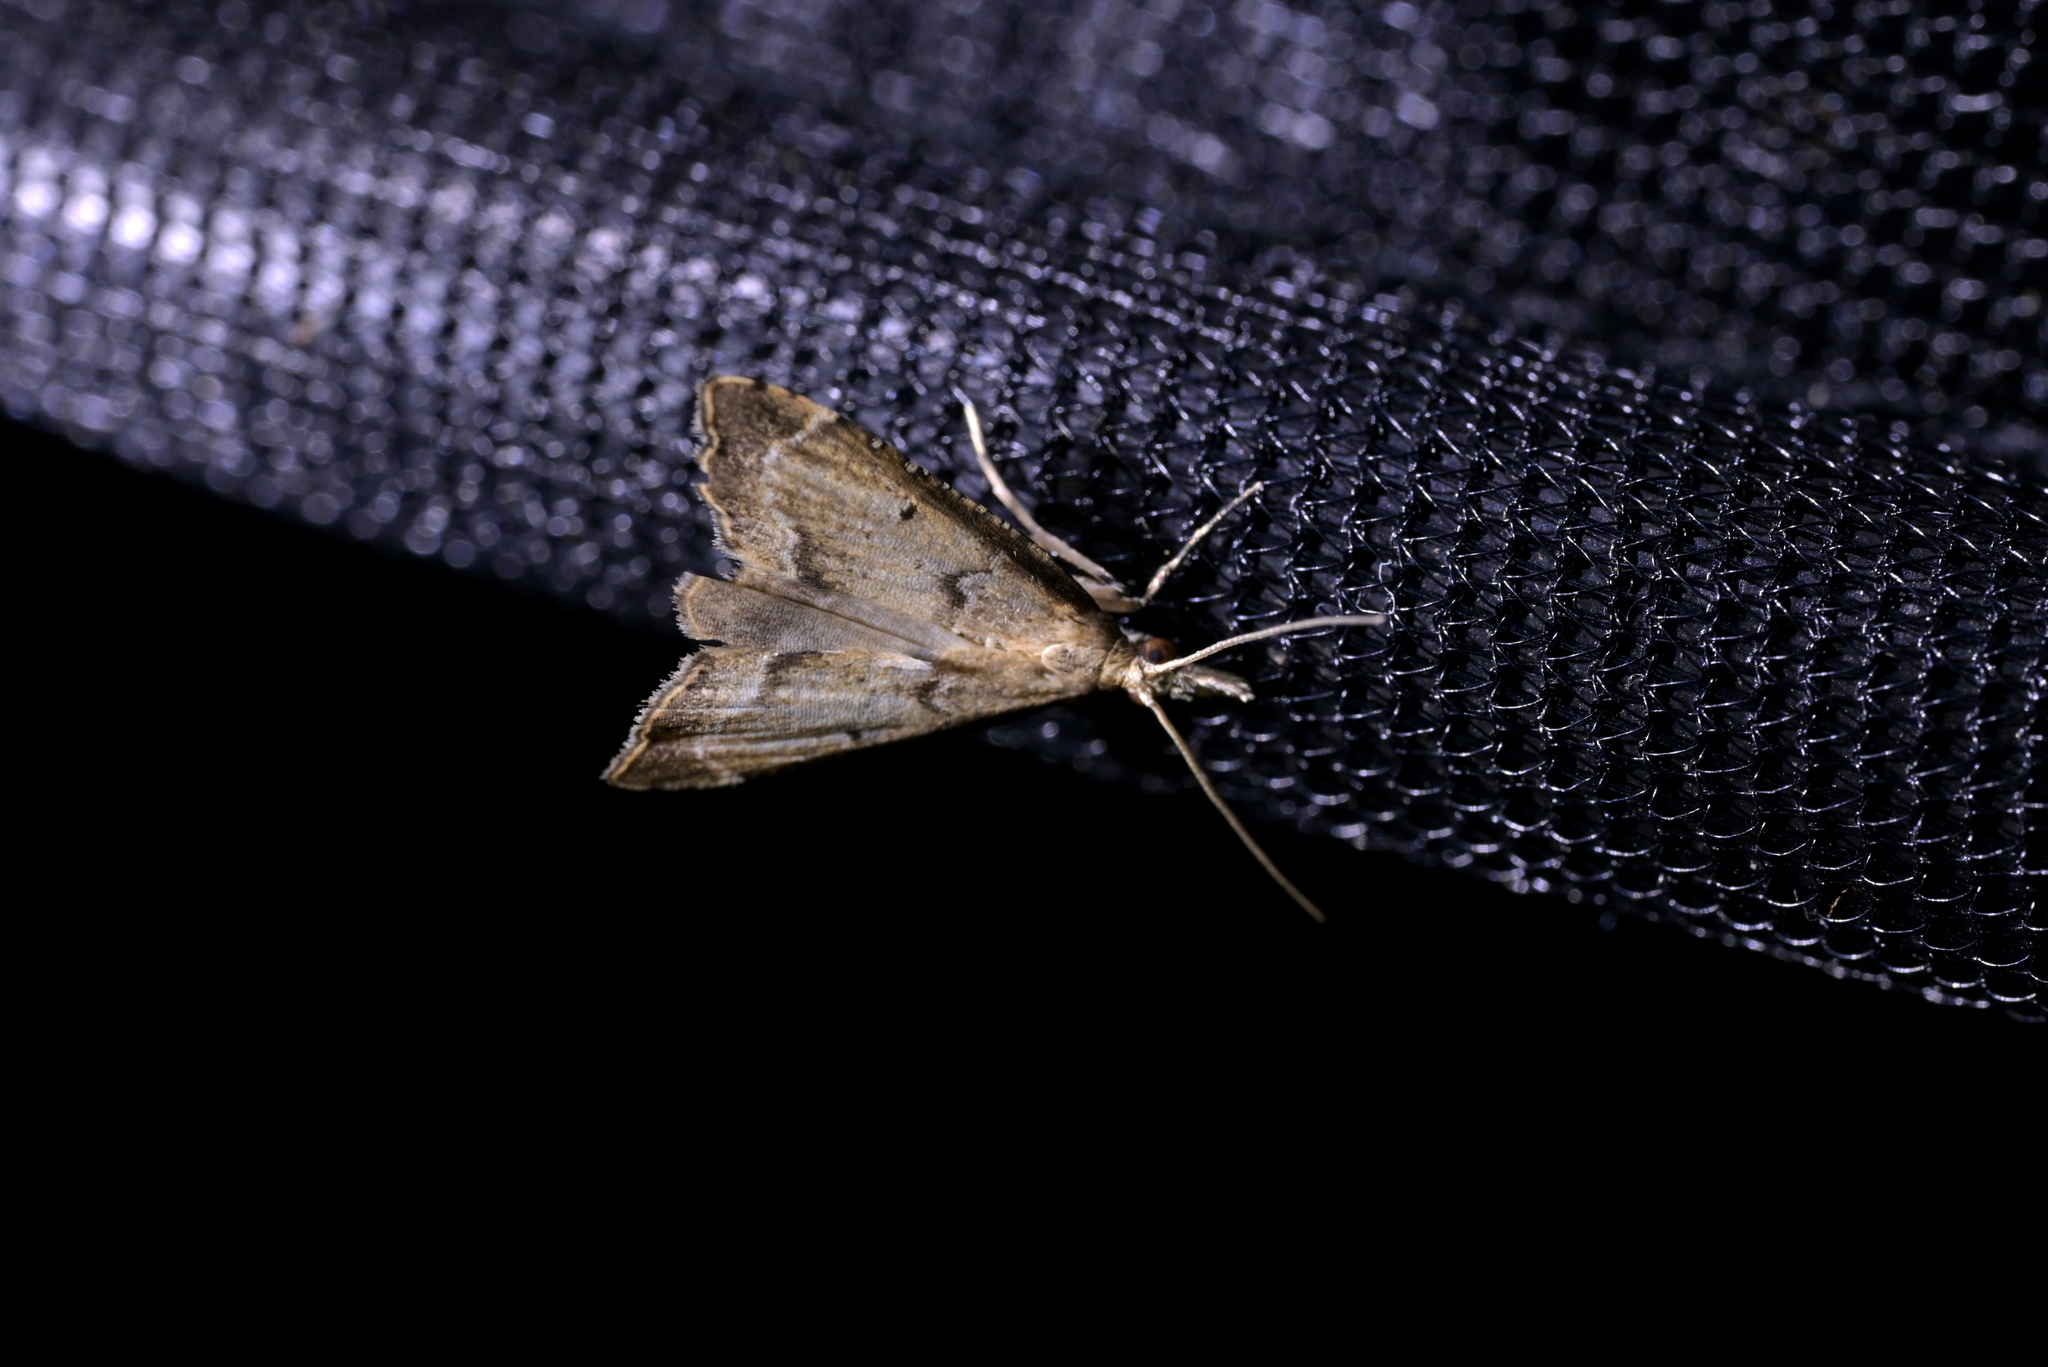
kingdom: Animalia
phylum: Arthropoda
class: Insecta
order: Lepidoptera
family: Crambidae
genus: Diplopseustis
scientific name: Diplopseustis perieresalis
